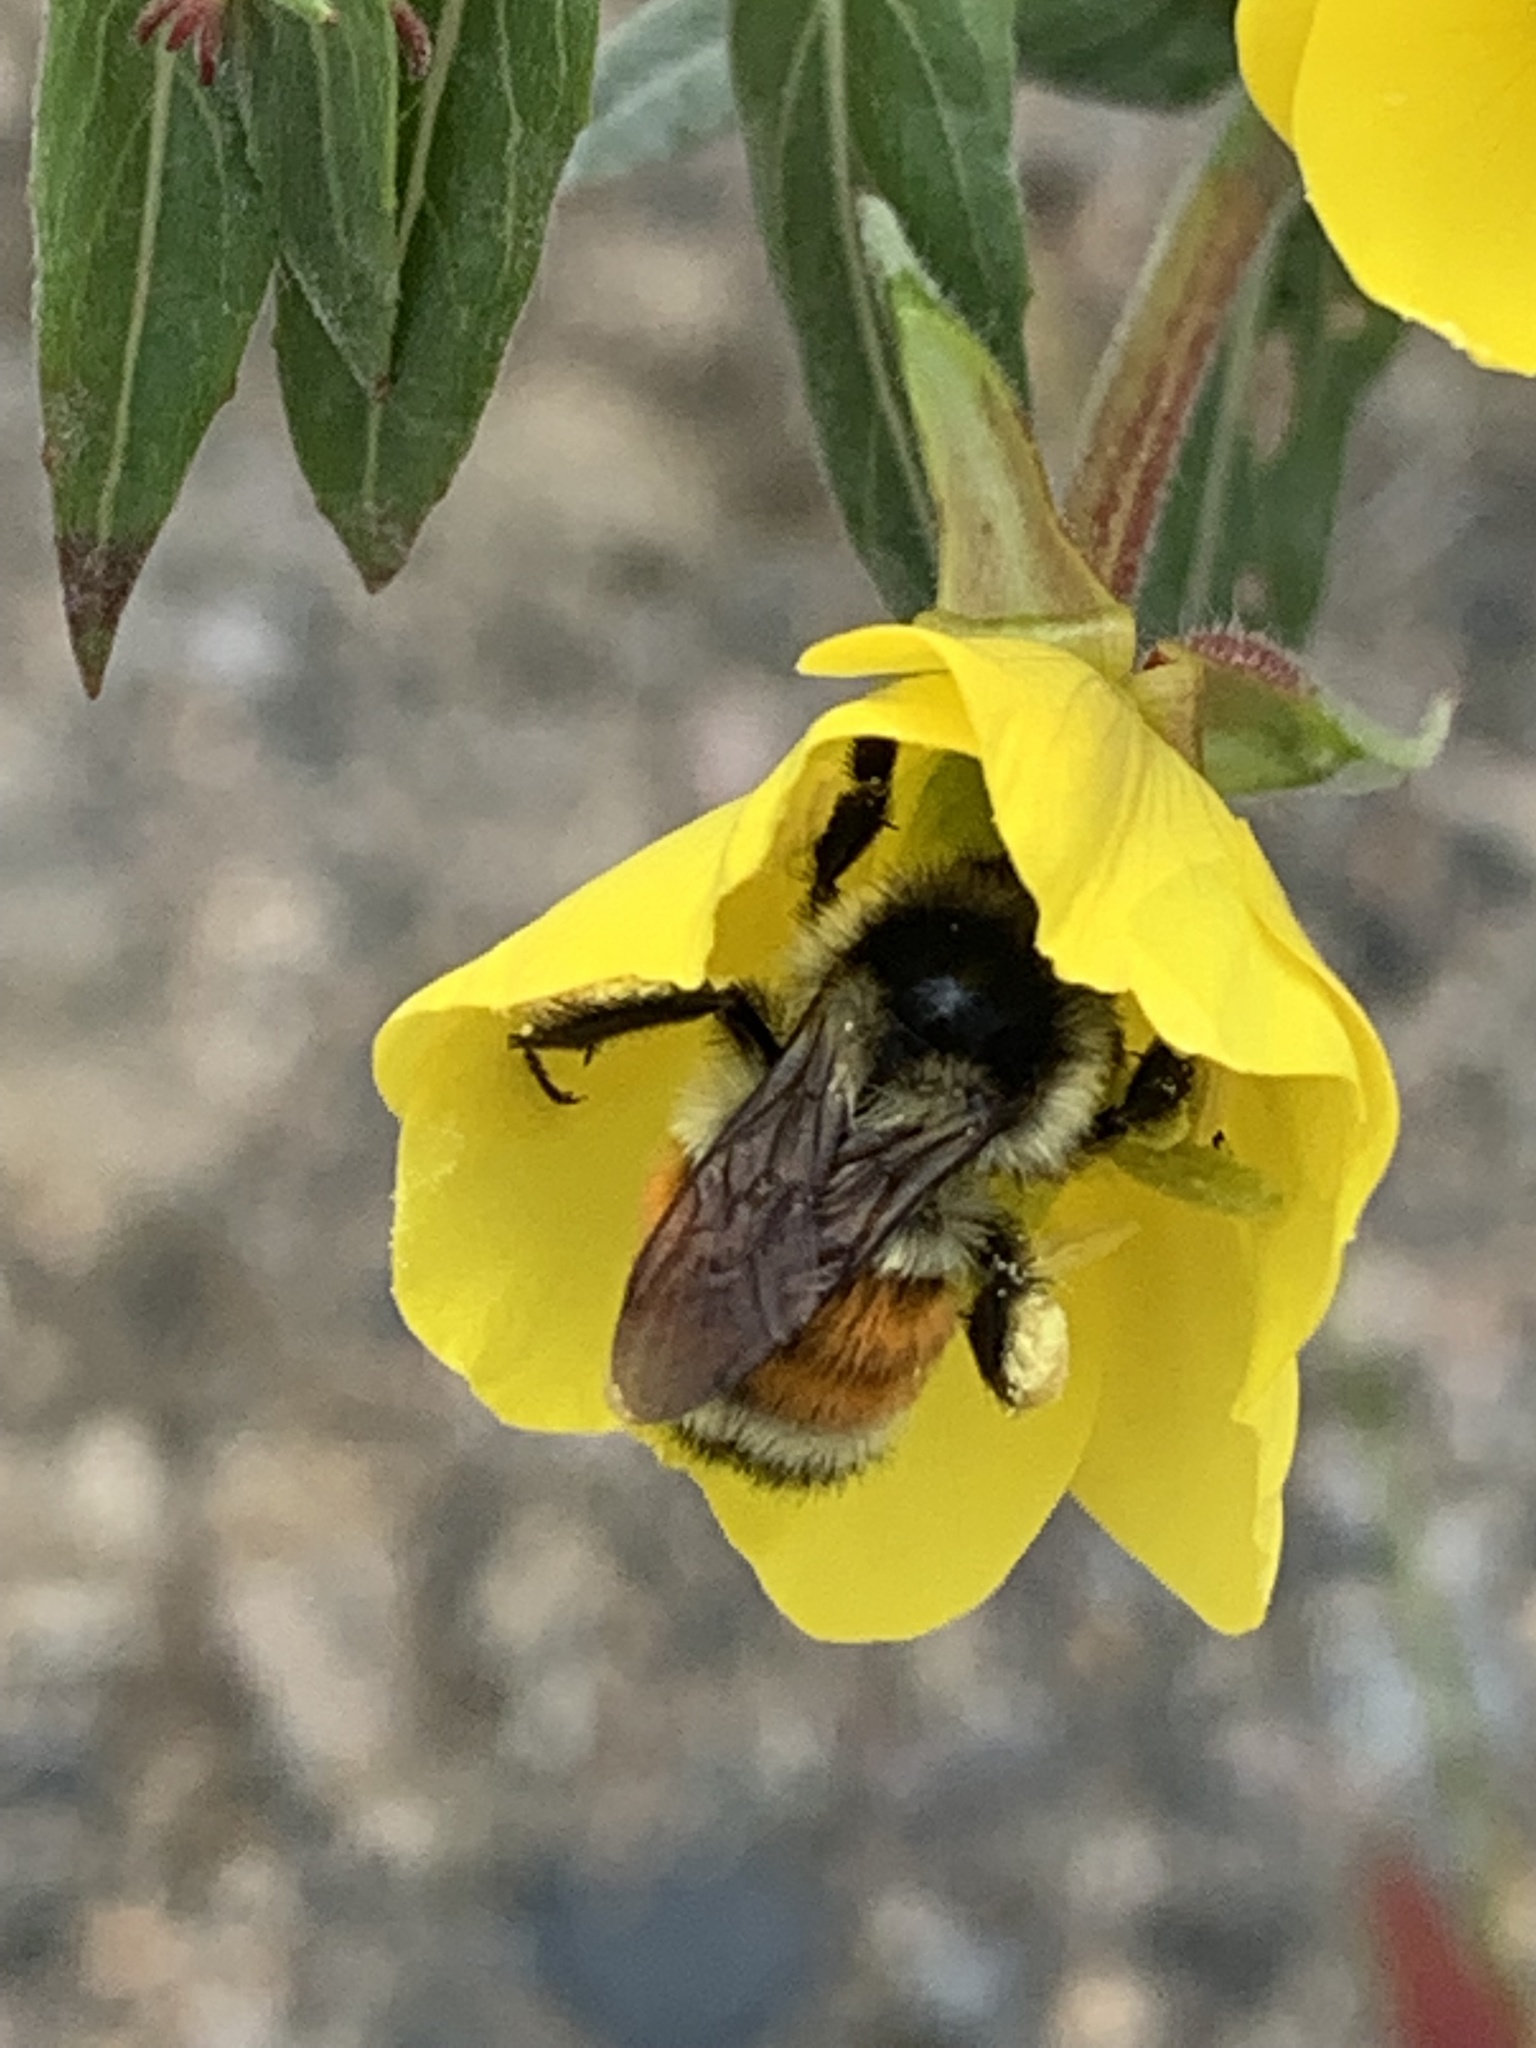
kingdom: Animalia
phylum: Arthropoda
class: Insecta
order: Hymenoptera
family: Apidae
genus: Bombus
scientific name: Bombus ternarius
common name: Tri-colored bumble bee
